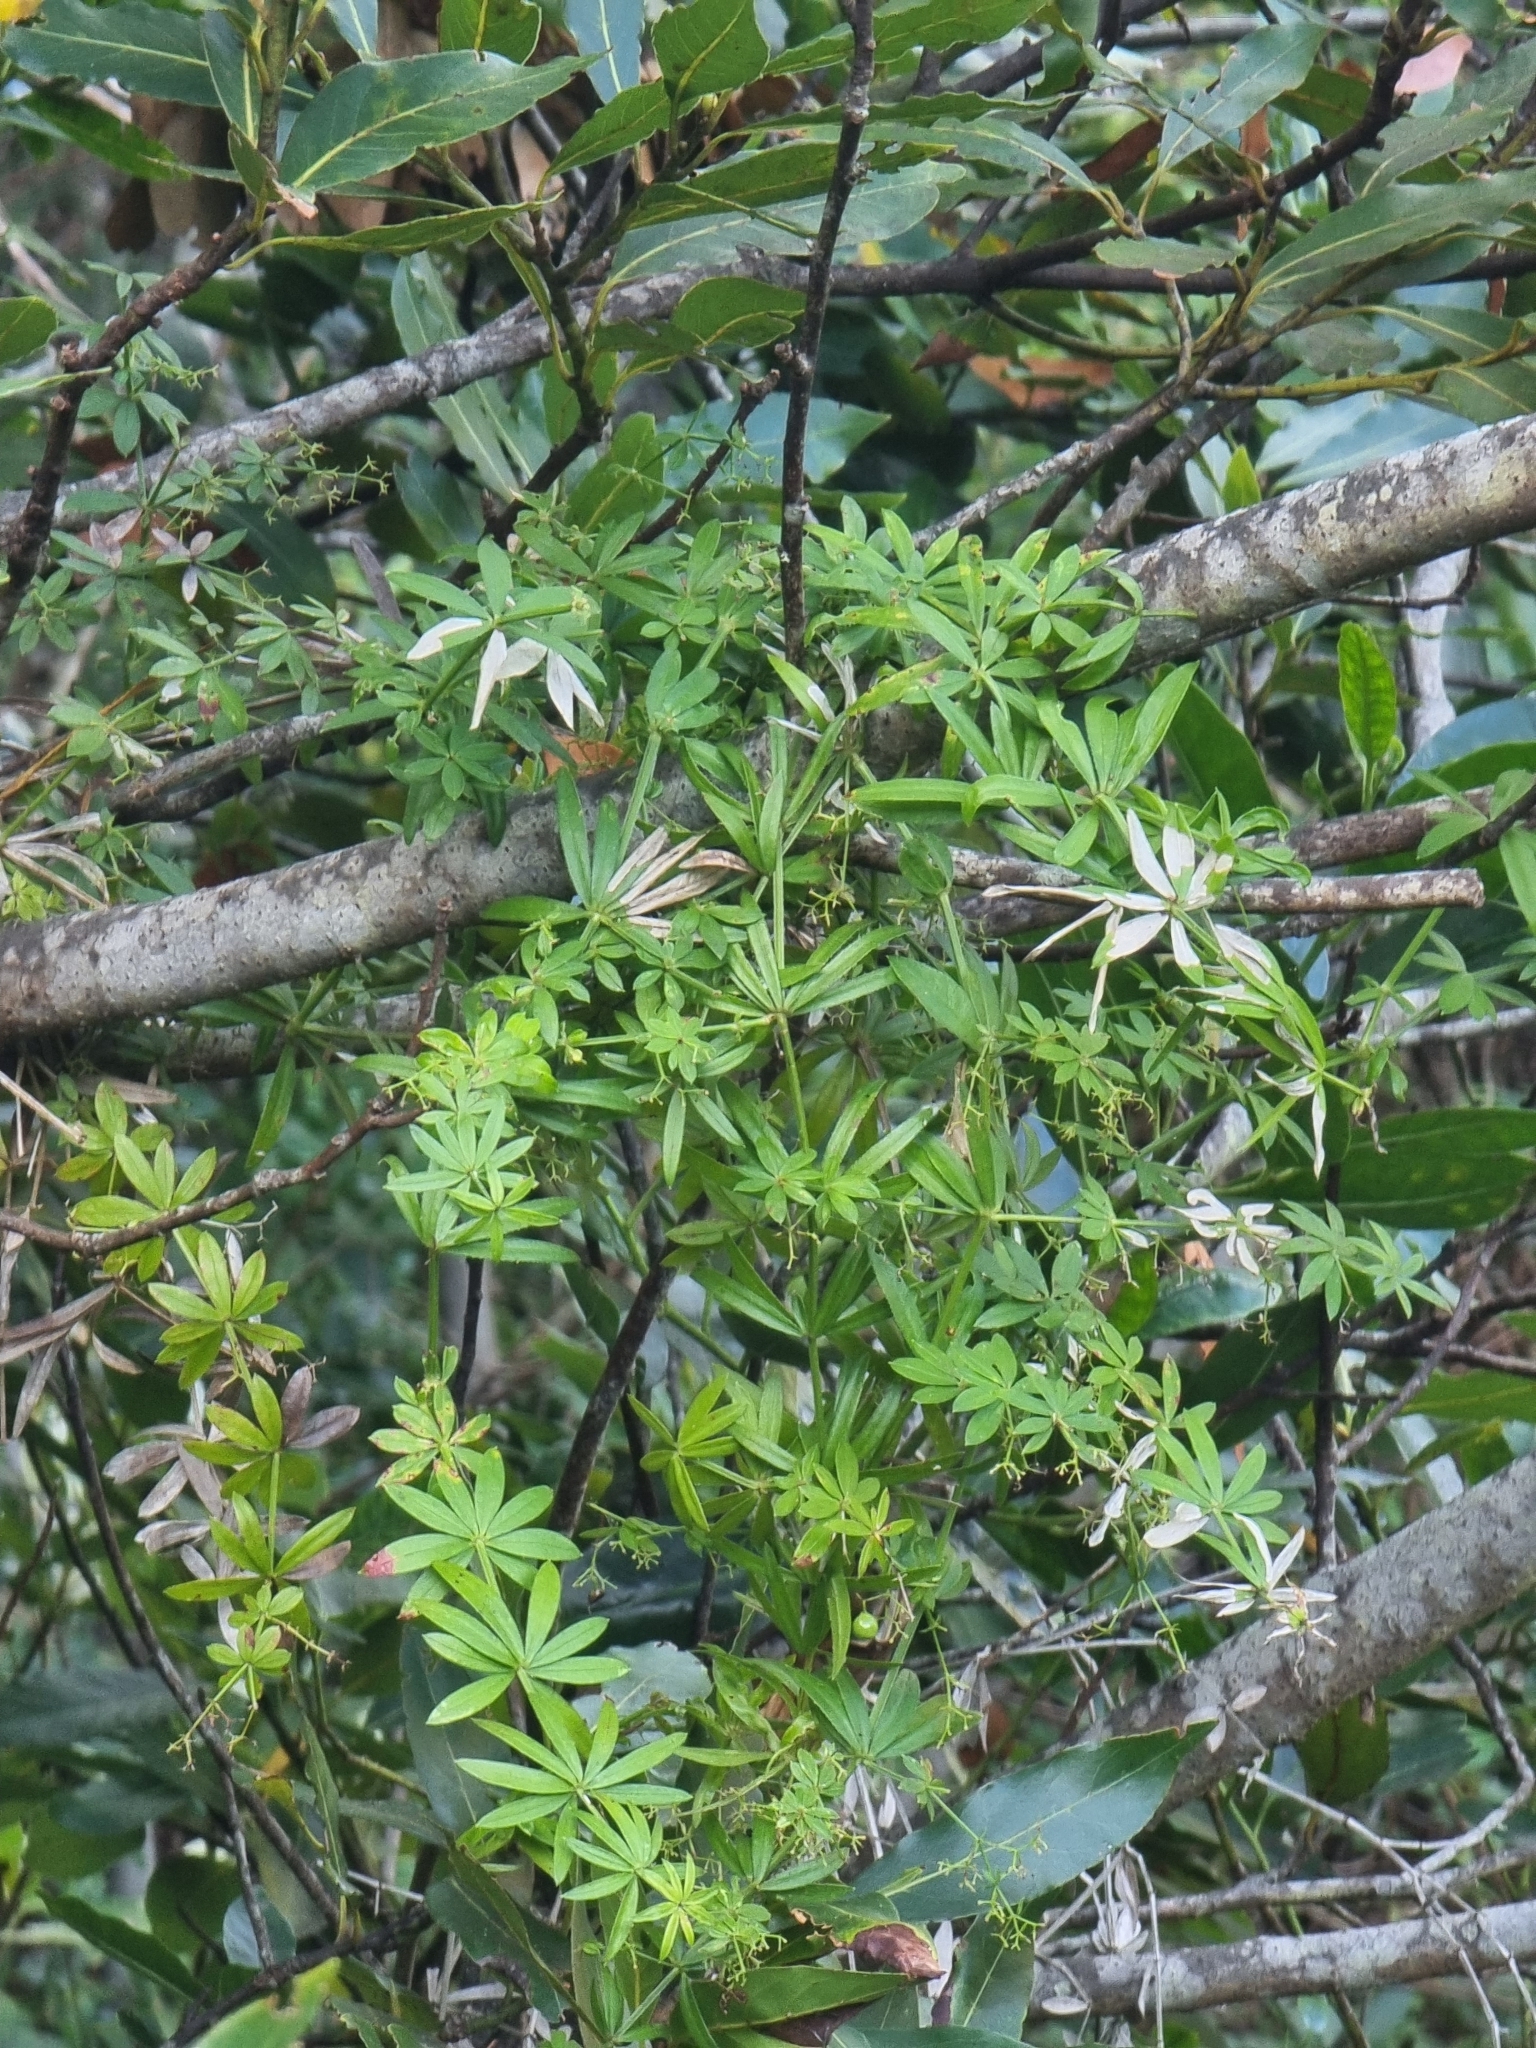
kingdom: Plantae
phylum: Tracheophyta
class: Magnoliopsida
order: Gentianales
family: Rubiaceae
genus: Rubia
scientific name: Rubia occidens
